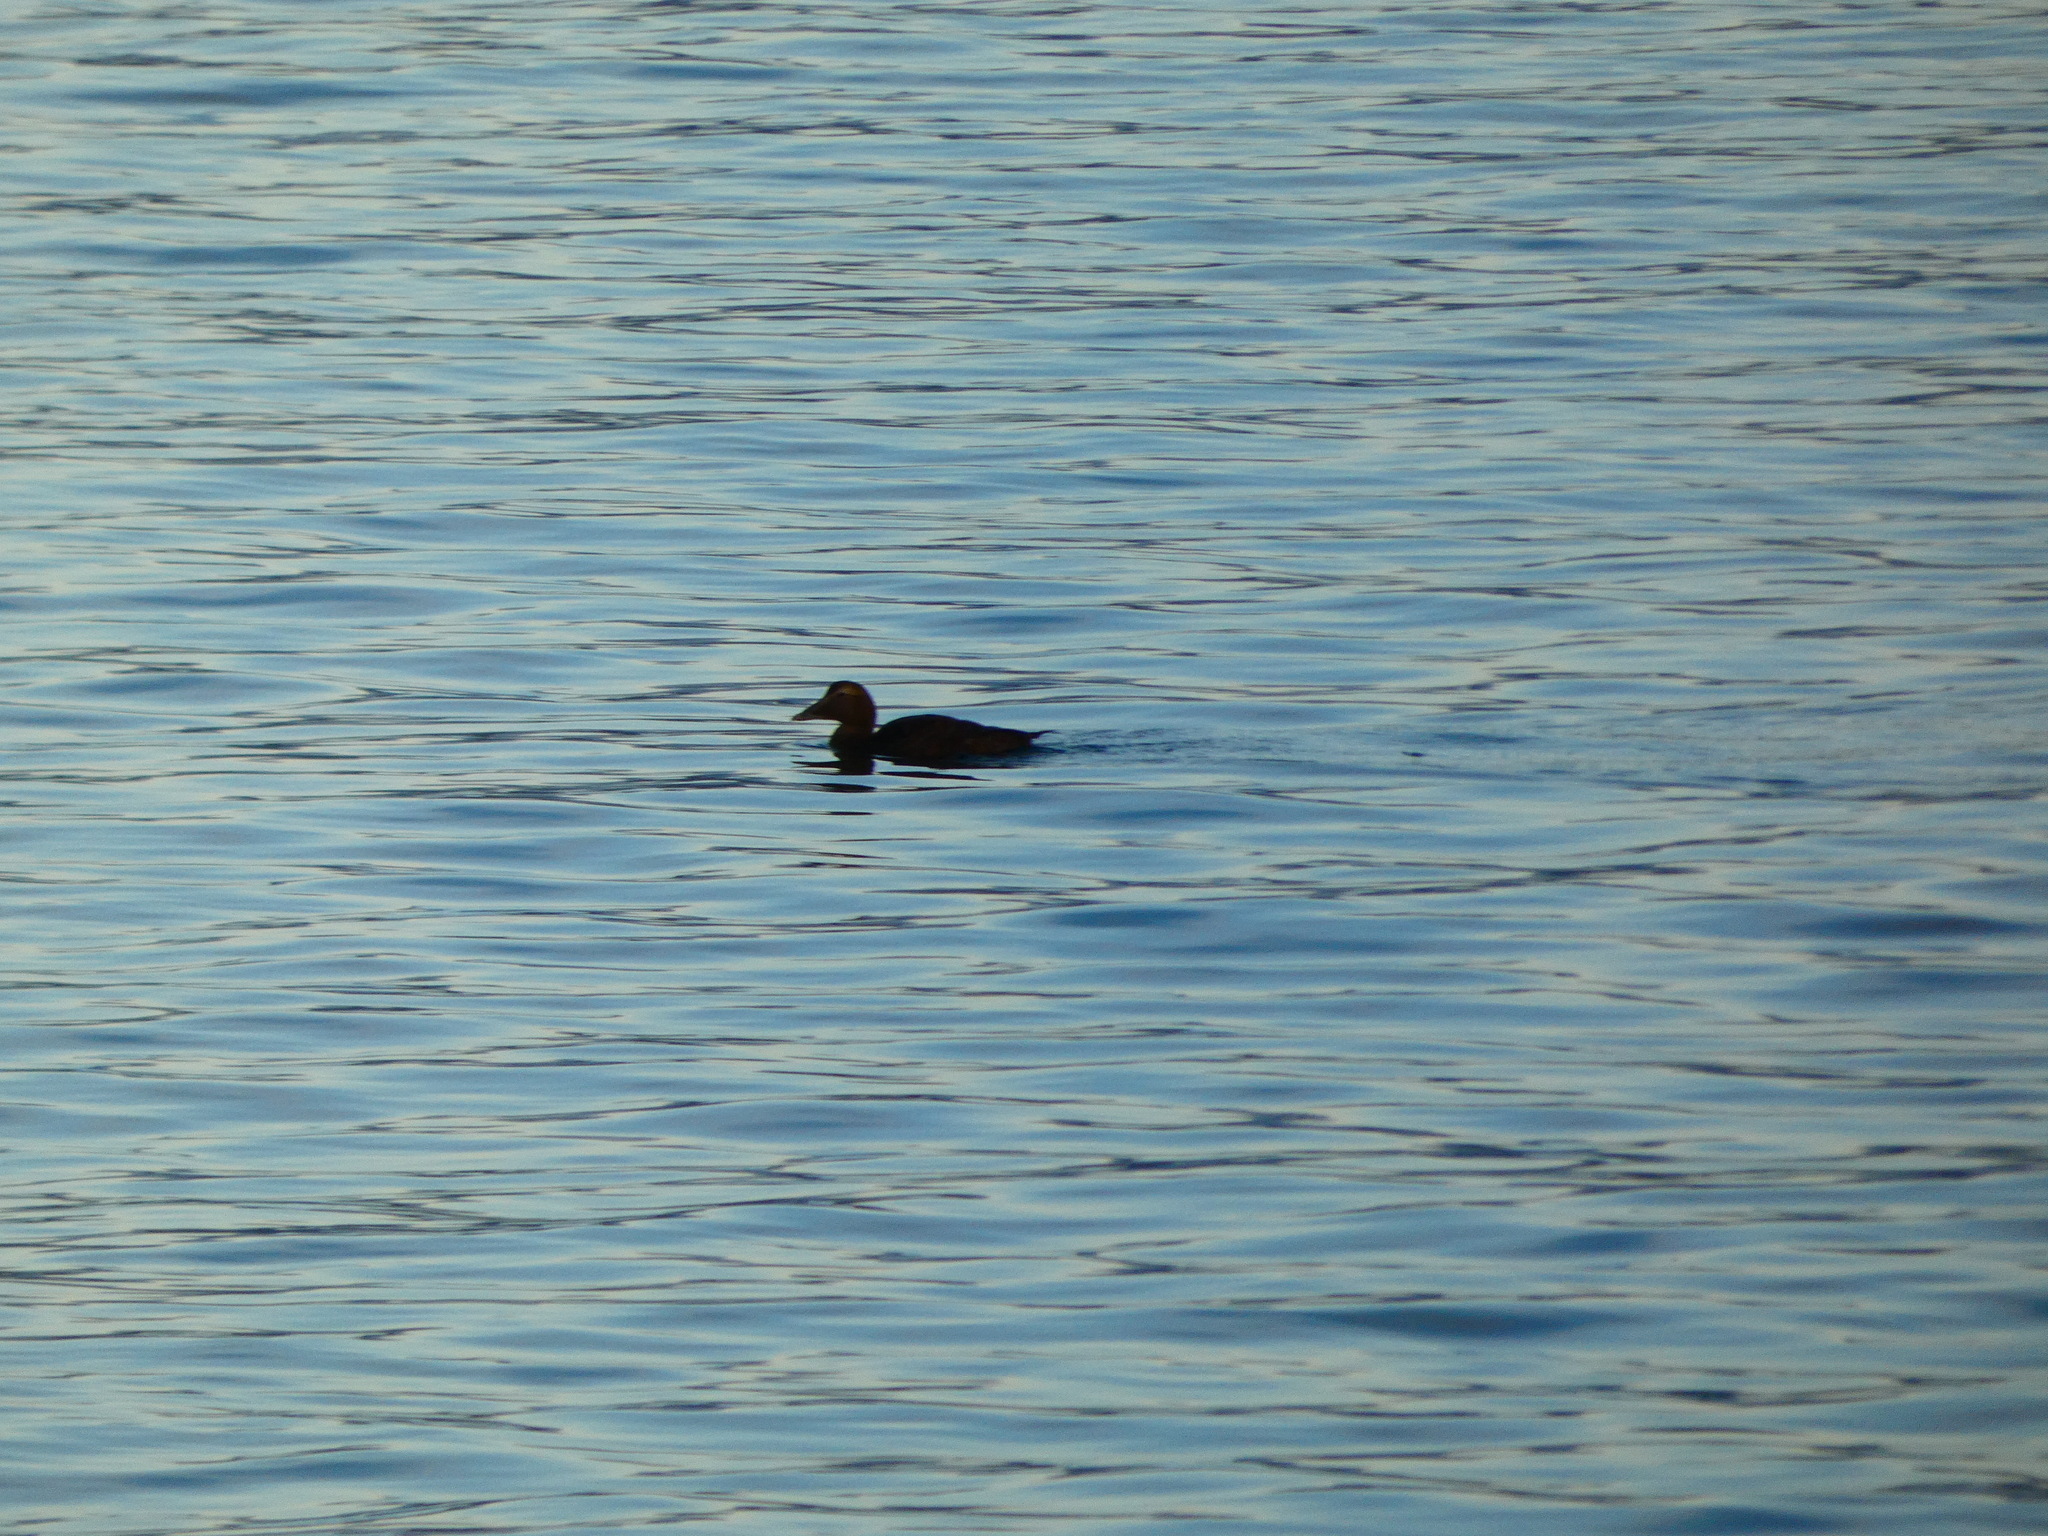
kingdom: Animalia
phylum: Chordata
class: Aves
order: Anseriformes
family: Anatidae
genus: Somateria
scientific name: Somateria mollissima
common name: Common eider
